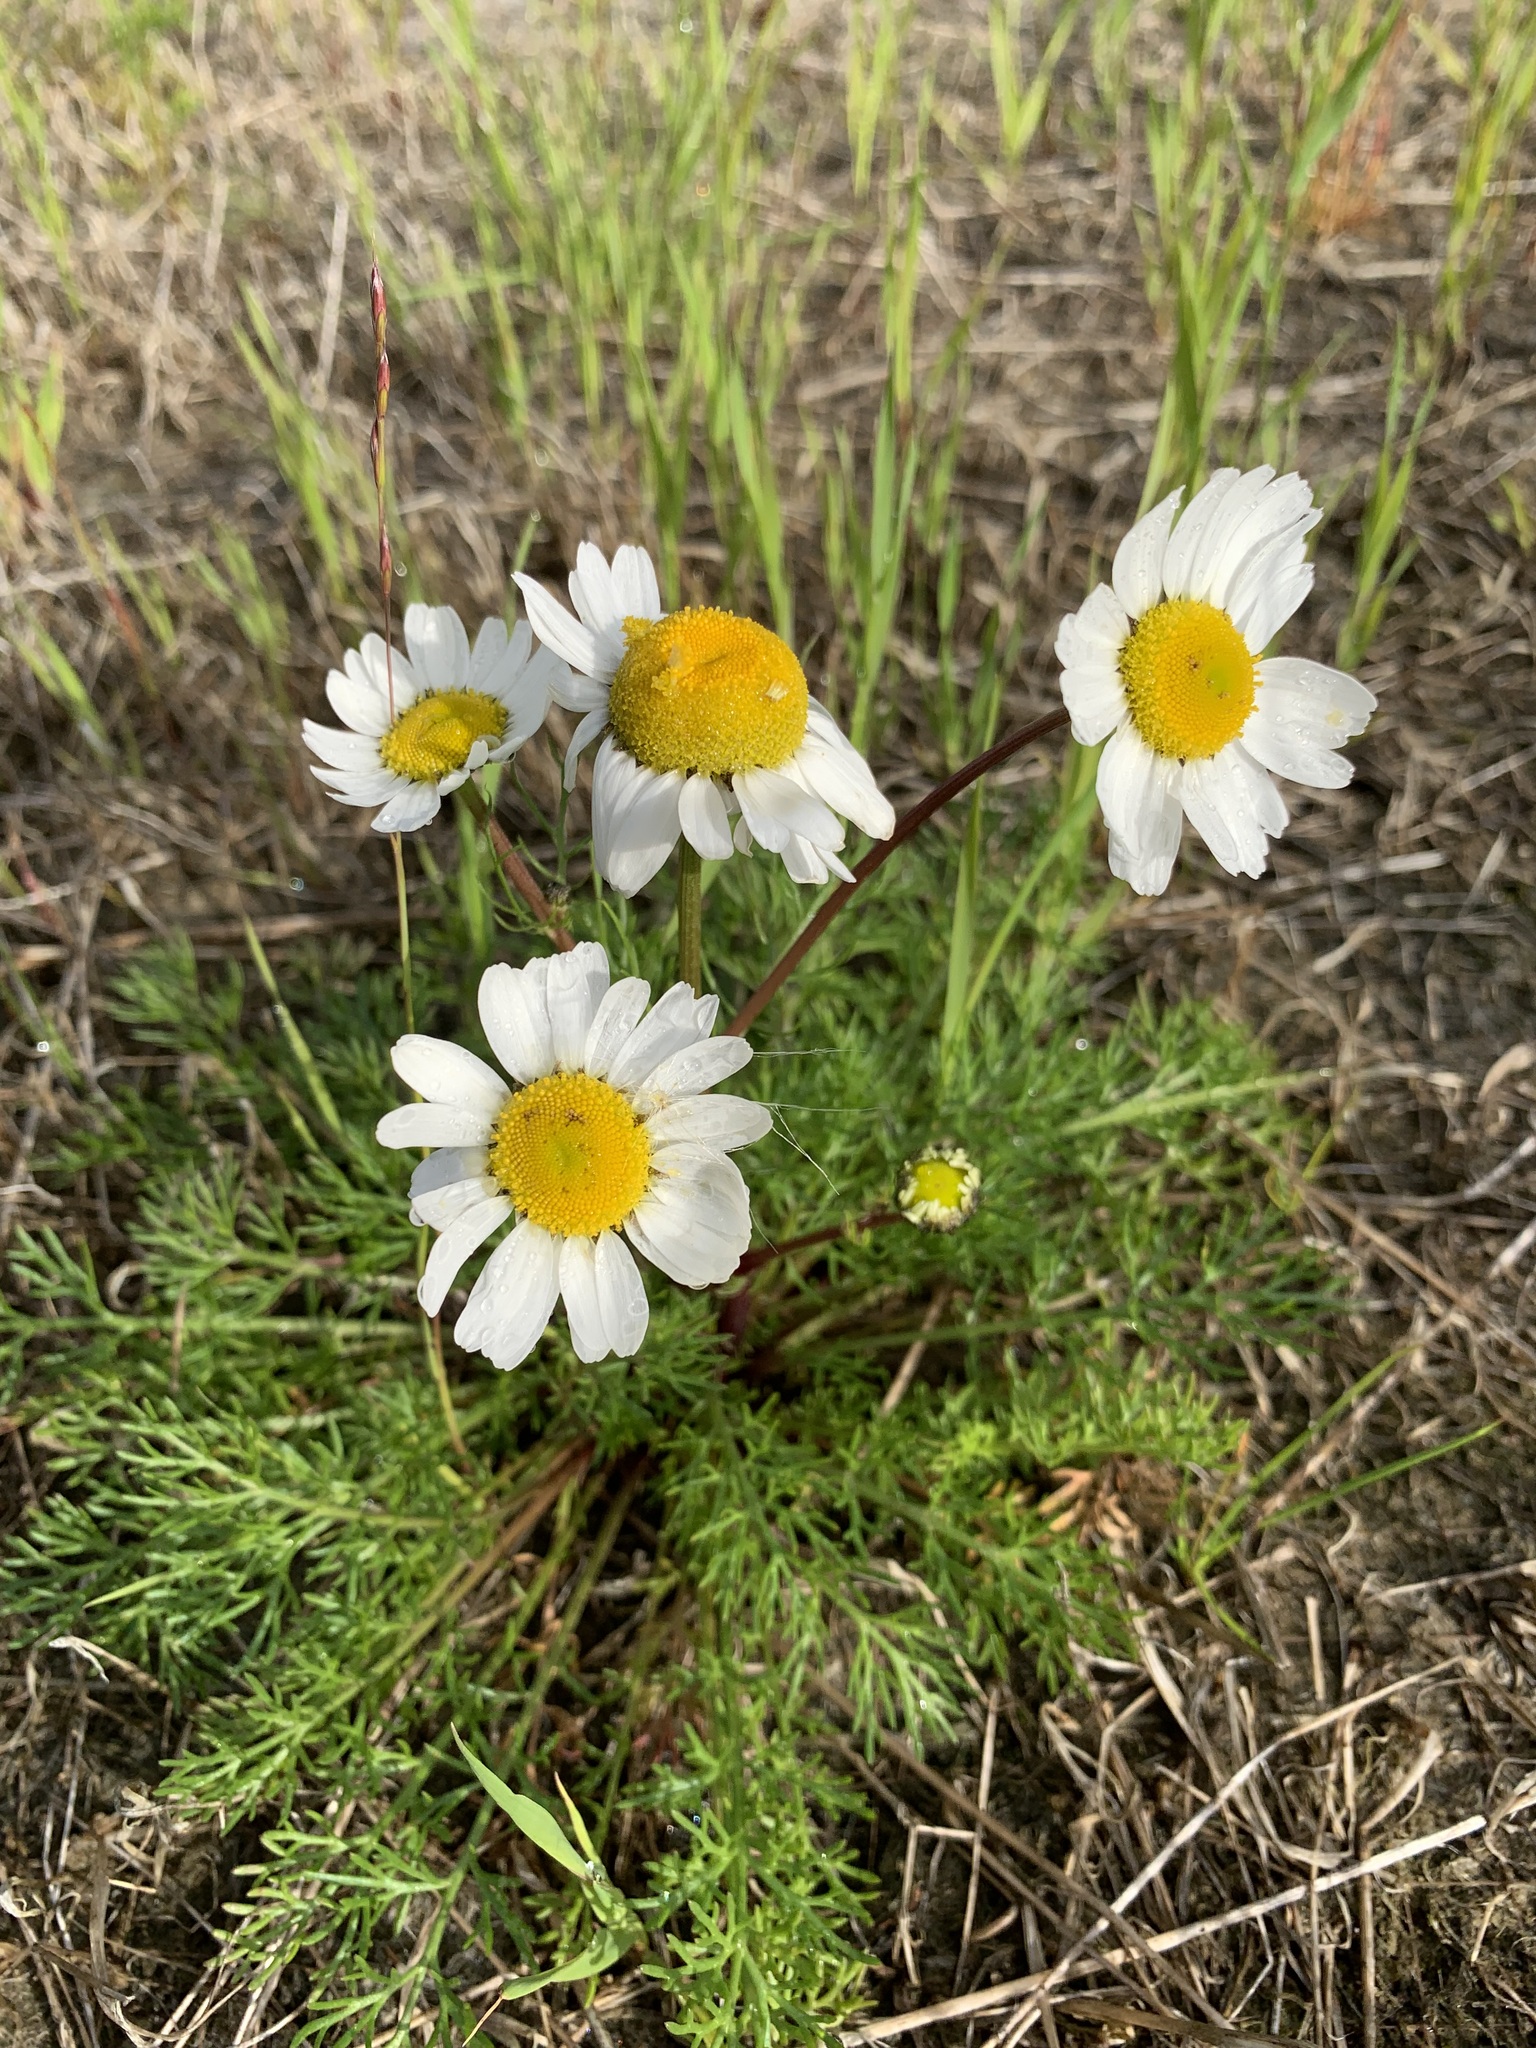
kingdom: Plantae
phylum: Tracheophyta
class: Magnoliopsida
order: Asterales
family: Asteraceae
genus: Tripleurospermum
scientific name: Tripleurospermum hookeri
